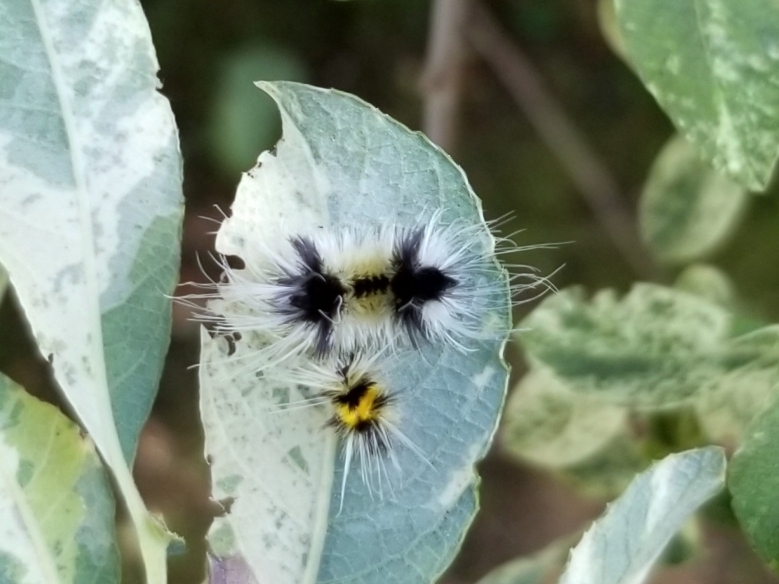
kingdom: Animalia
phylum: Arthropoda
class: Insecta
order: Lepidoptera
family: Erebidae
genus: Lophocampa
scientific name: Lophocampa maculata
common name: Spotted tussock moth
